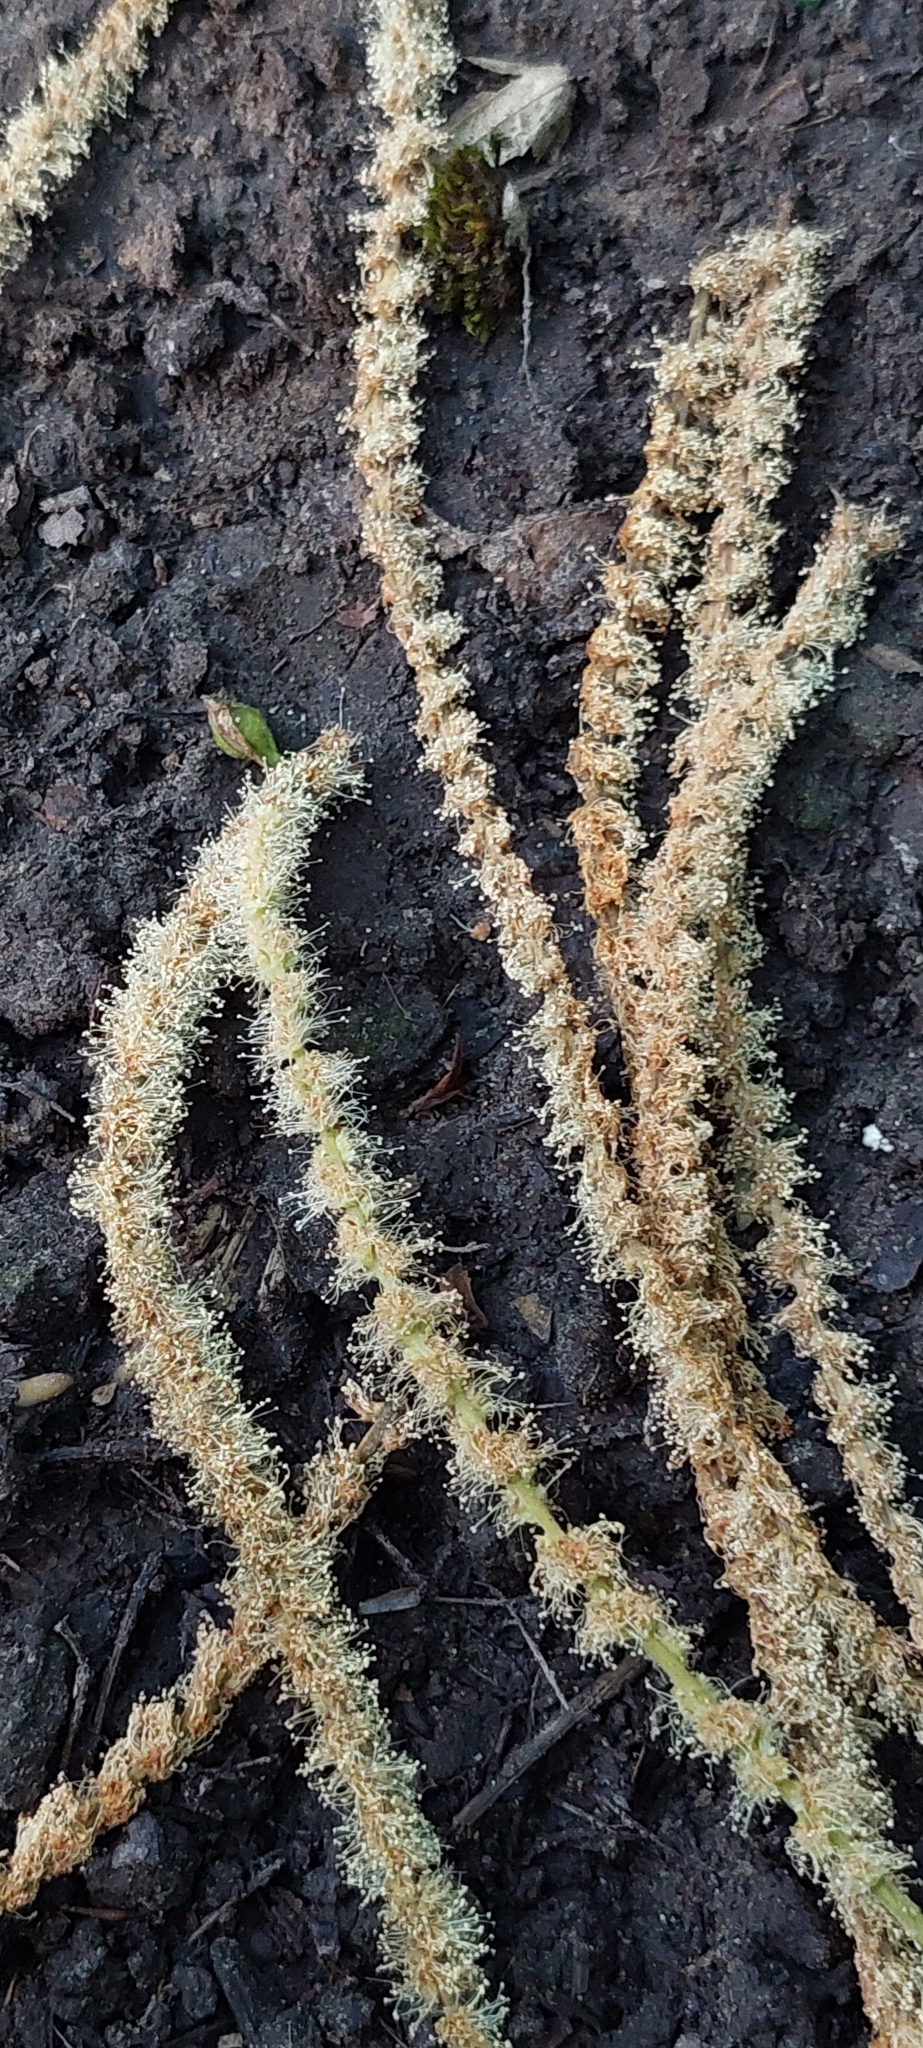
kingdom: Plantae
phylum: Tracheophyta
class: Magnoliopsida
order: Fagales
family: Fagaceae
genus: Castanea
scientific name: Castanea sativa
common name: Sweet chestnut
